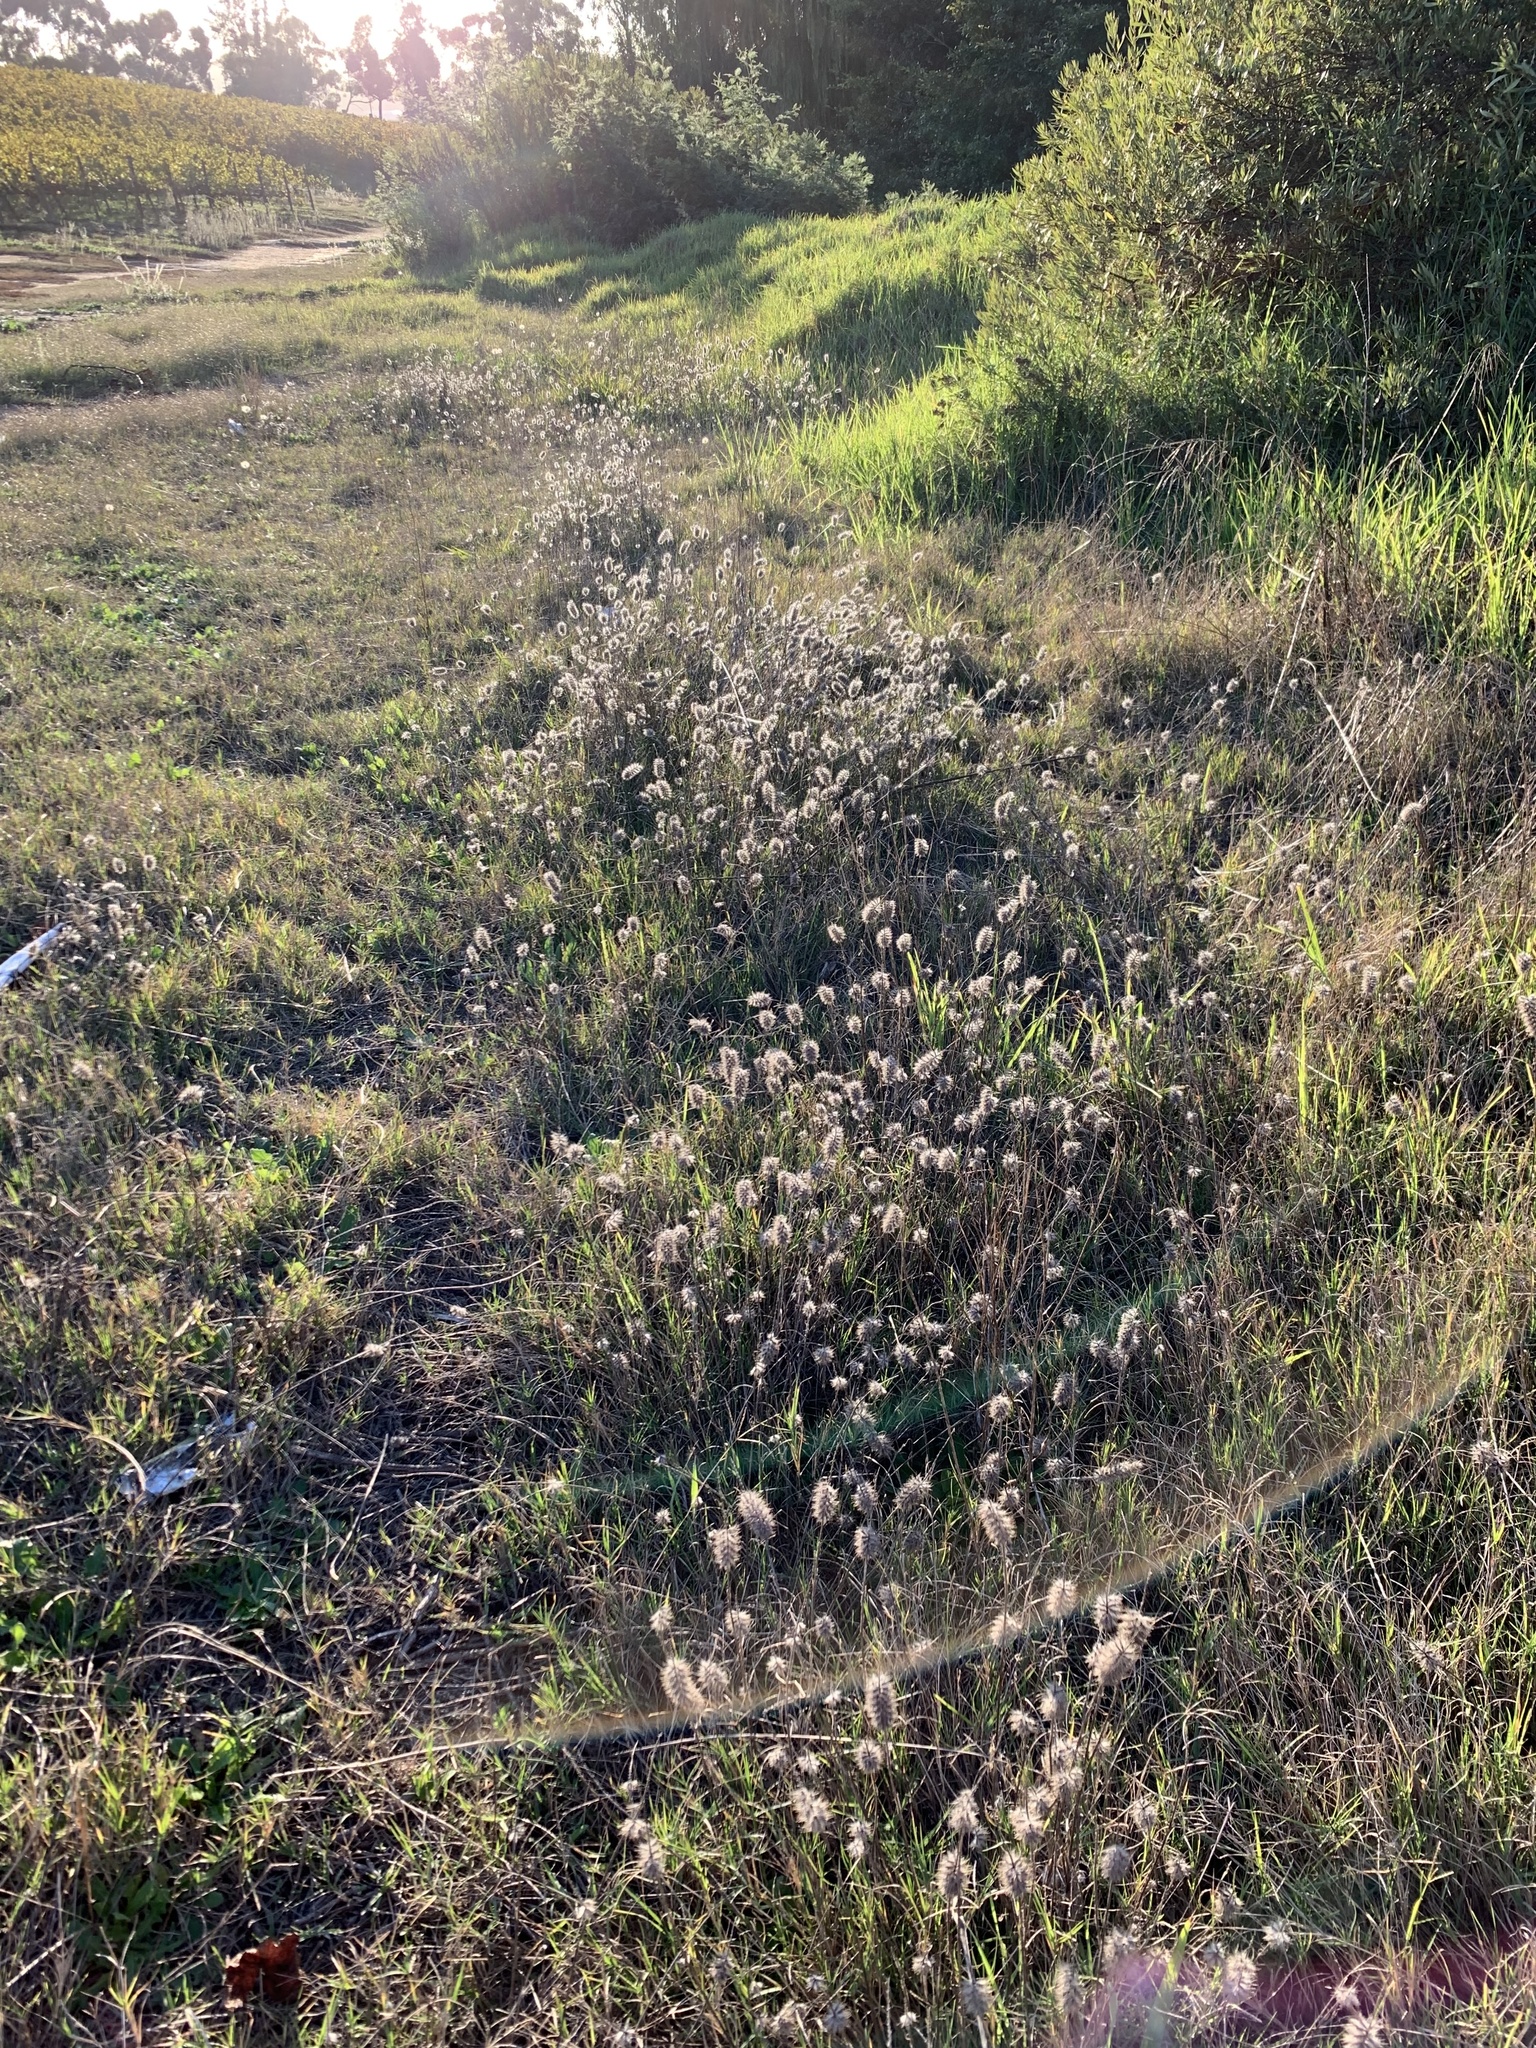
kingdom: Plantae
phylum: Tracheophyta
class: Magnoliopsida
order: Fabales
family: Fabaceae
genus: Trifolium
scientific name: Trifolium angustifolium
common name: Narrow clover
